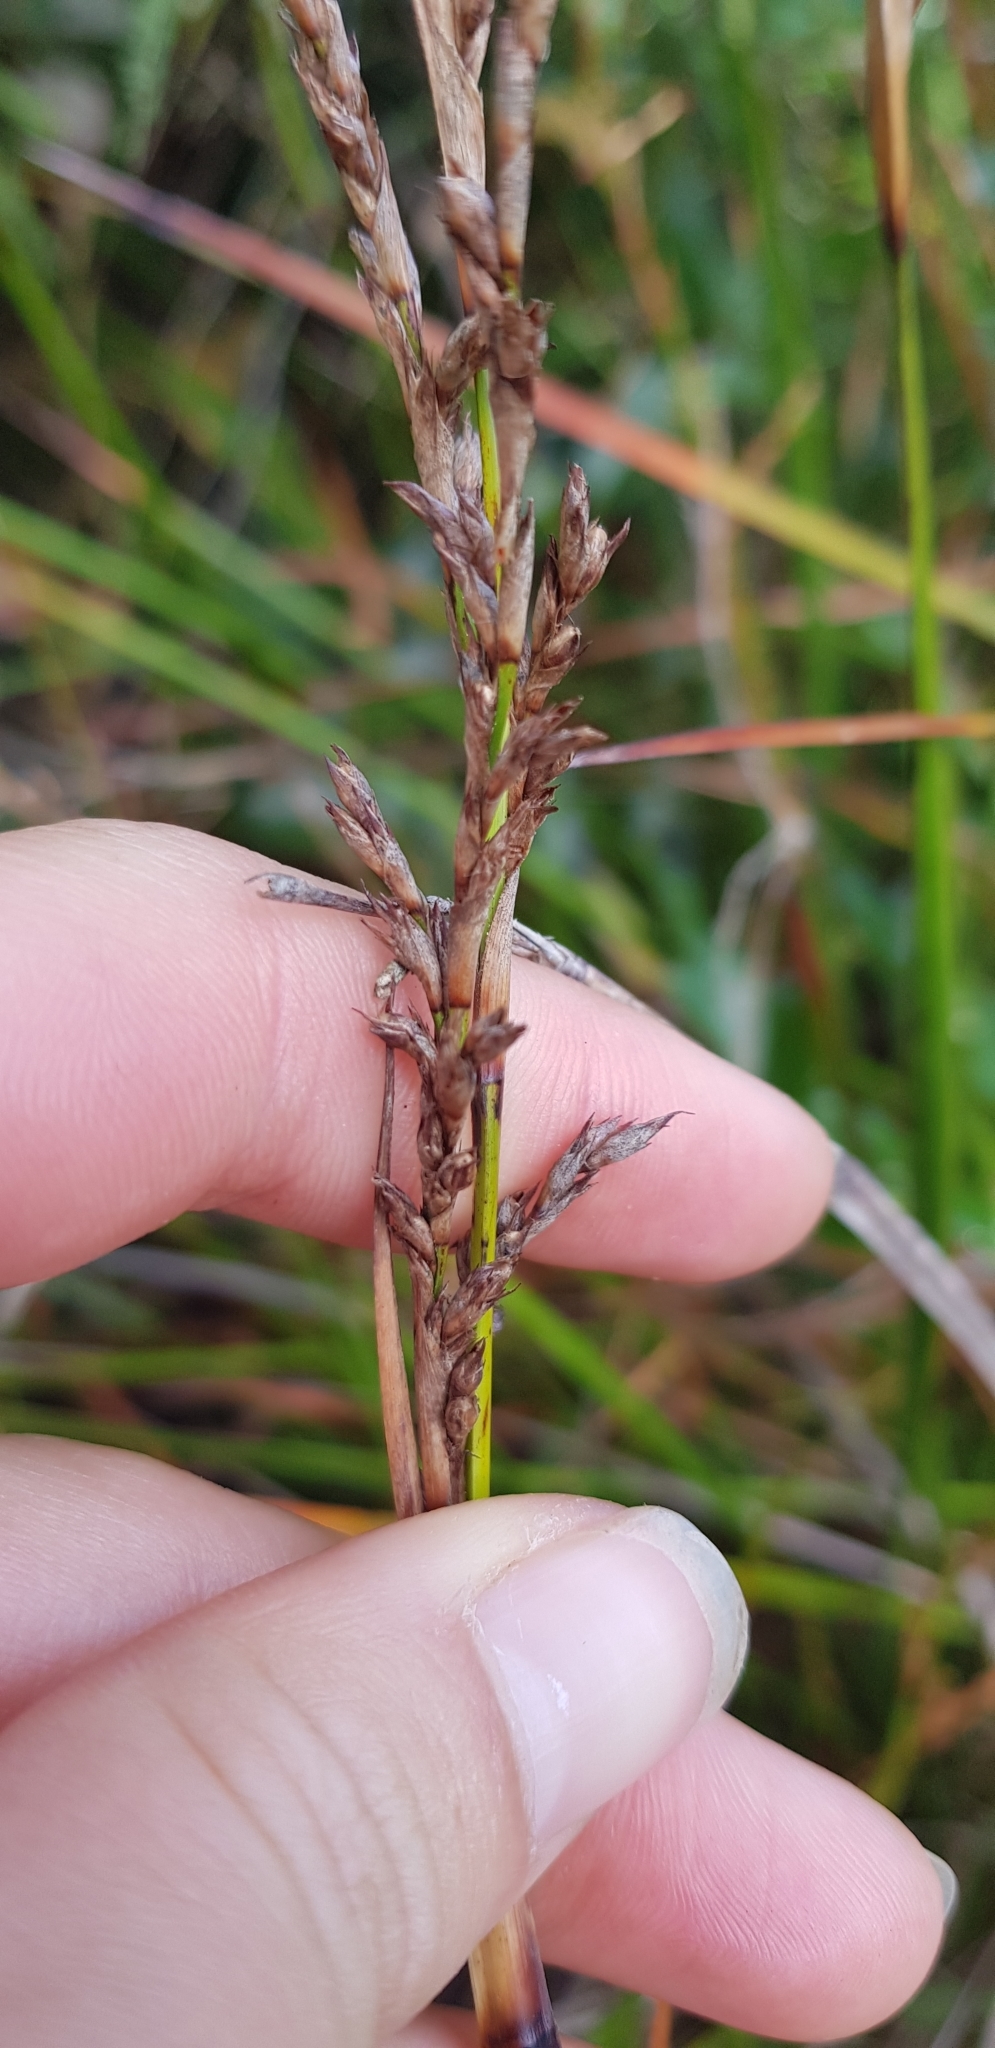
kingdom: Plantae
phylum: Tracheophyta
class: Liliopsida
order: Poales
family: Cyperaceae
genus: Lepidosperma
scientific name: Lepidosperma laterale
